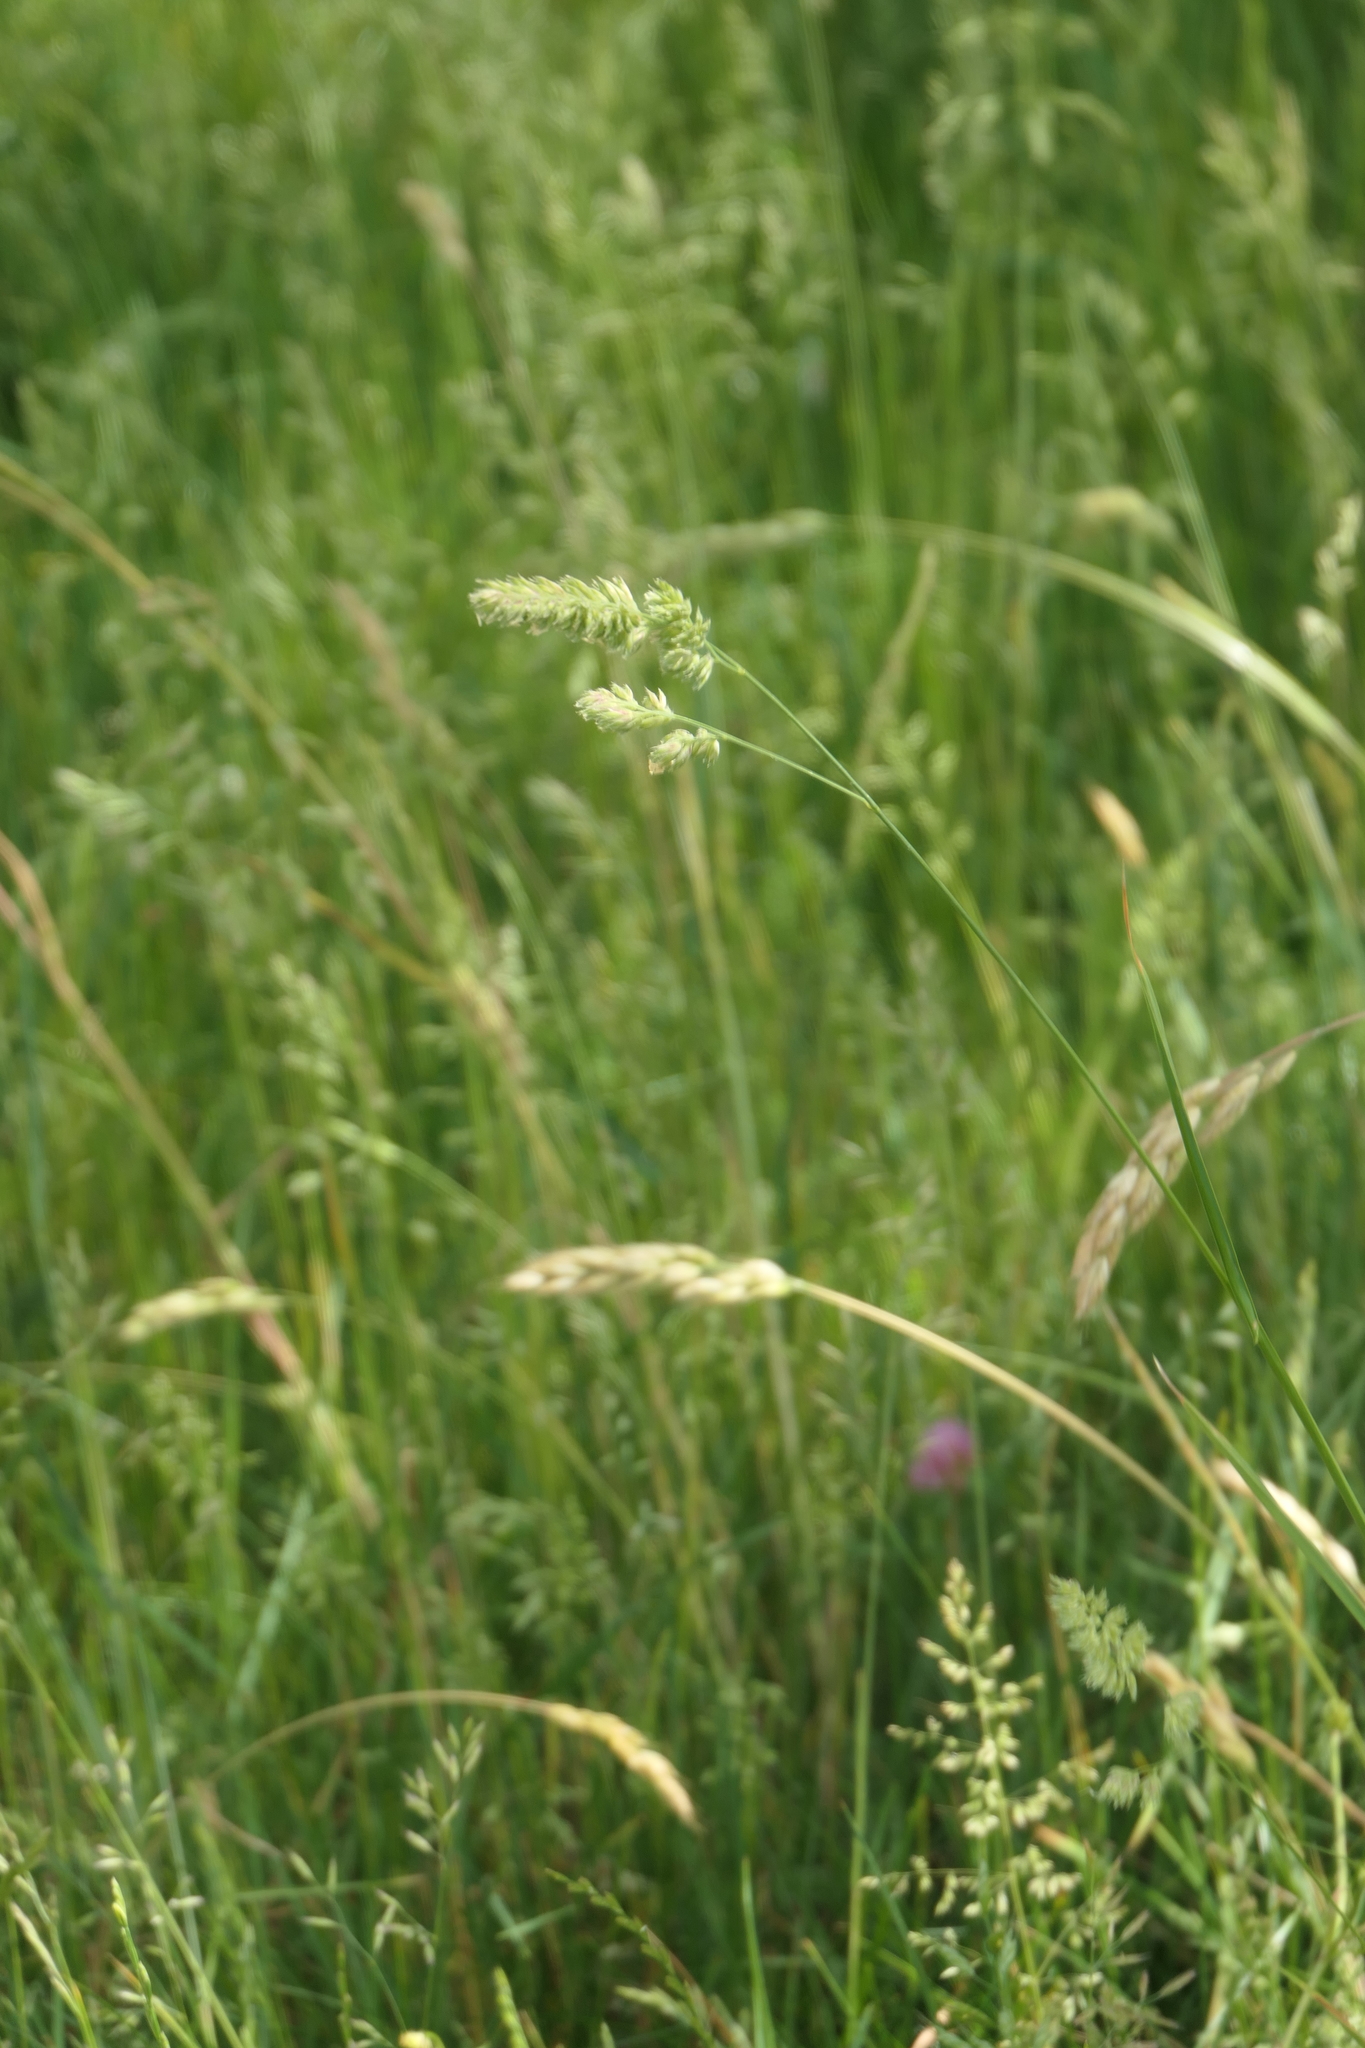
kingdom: Plantae
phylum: Tracheophyta
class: Liliopsida
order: Poales
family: Poaceae
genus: Dactylis
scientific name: Dactylis glomerata
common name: Orchardgrass
